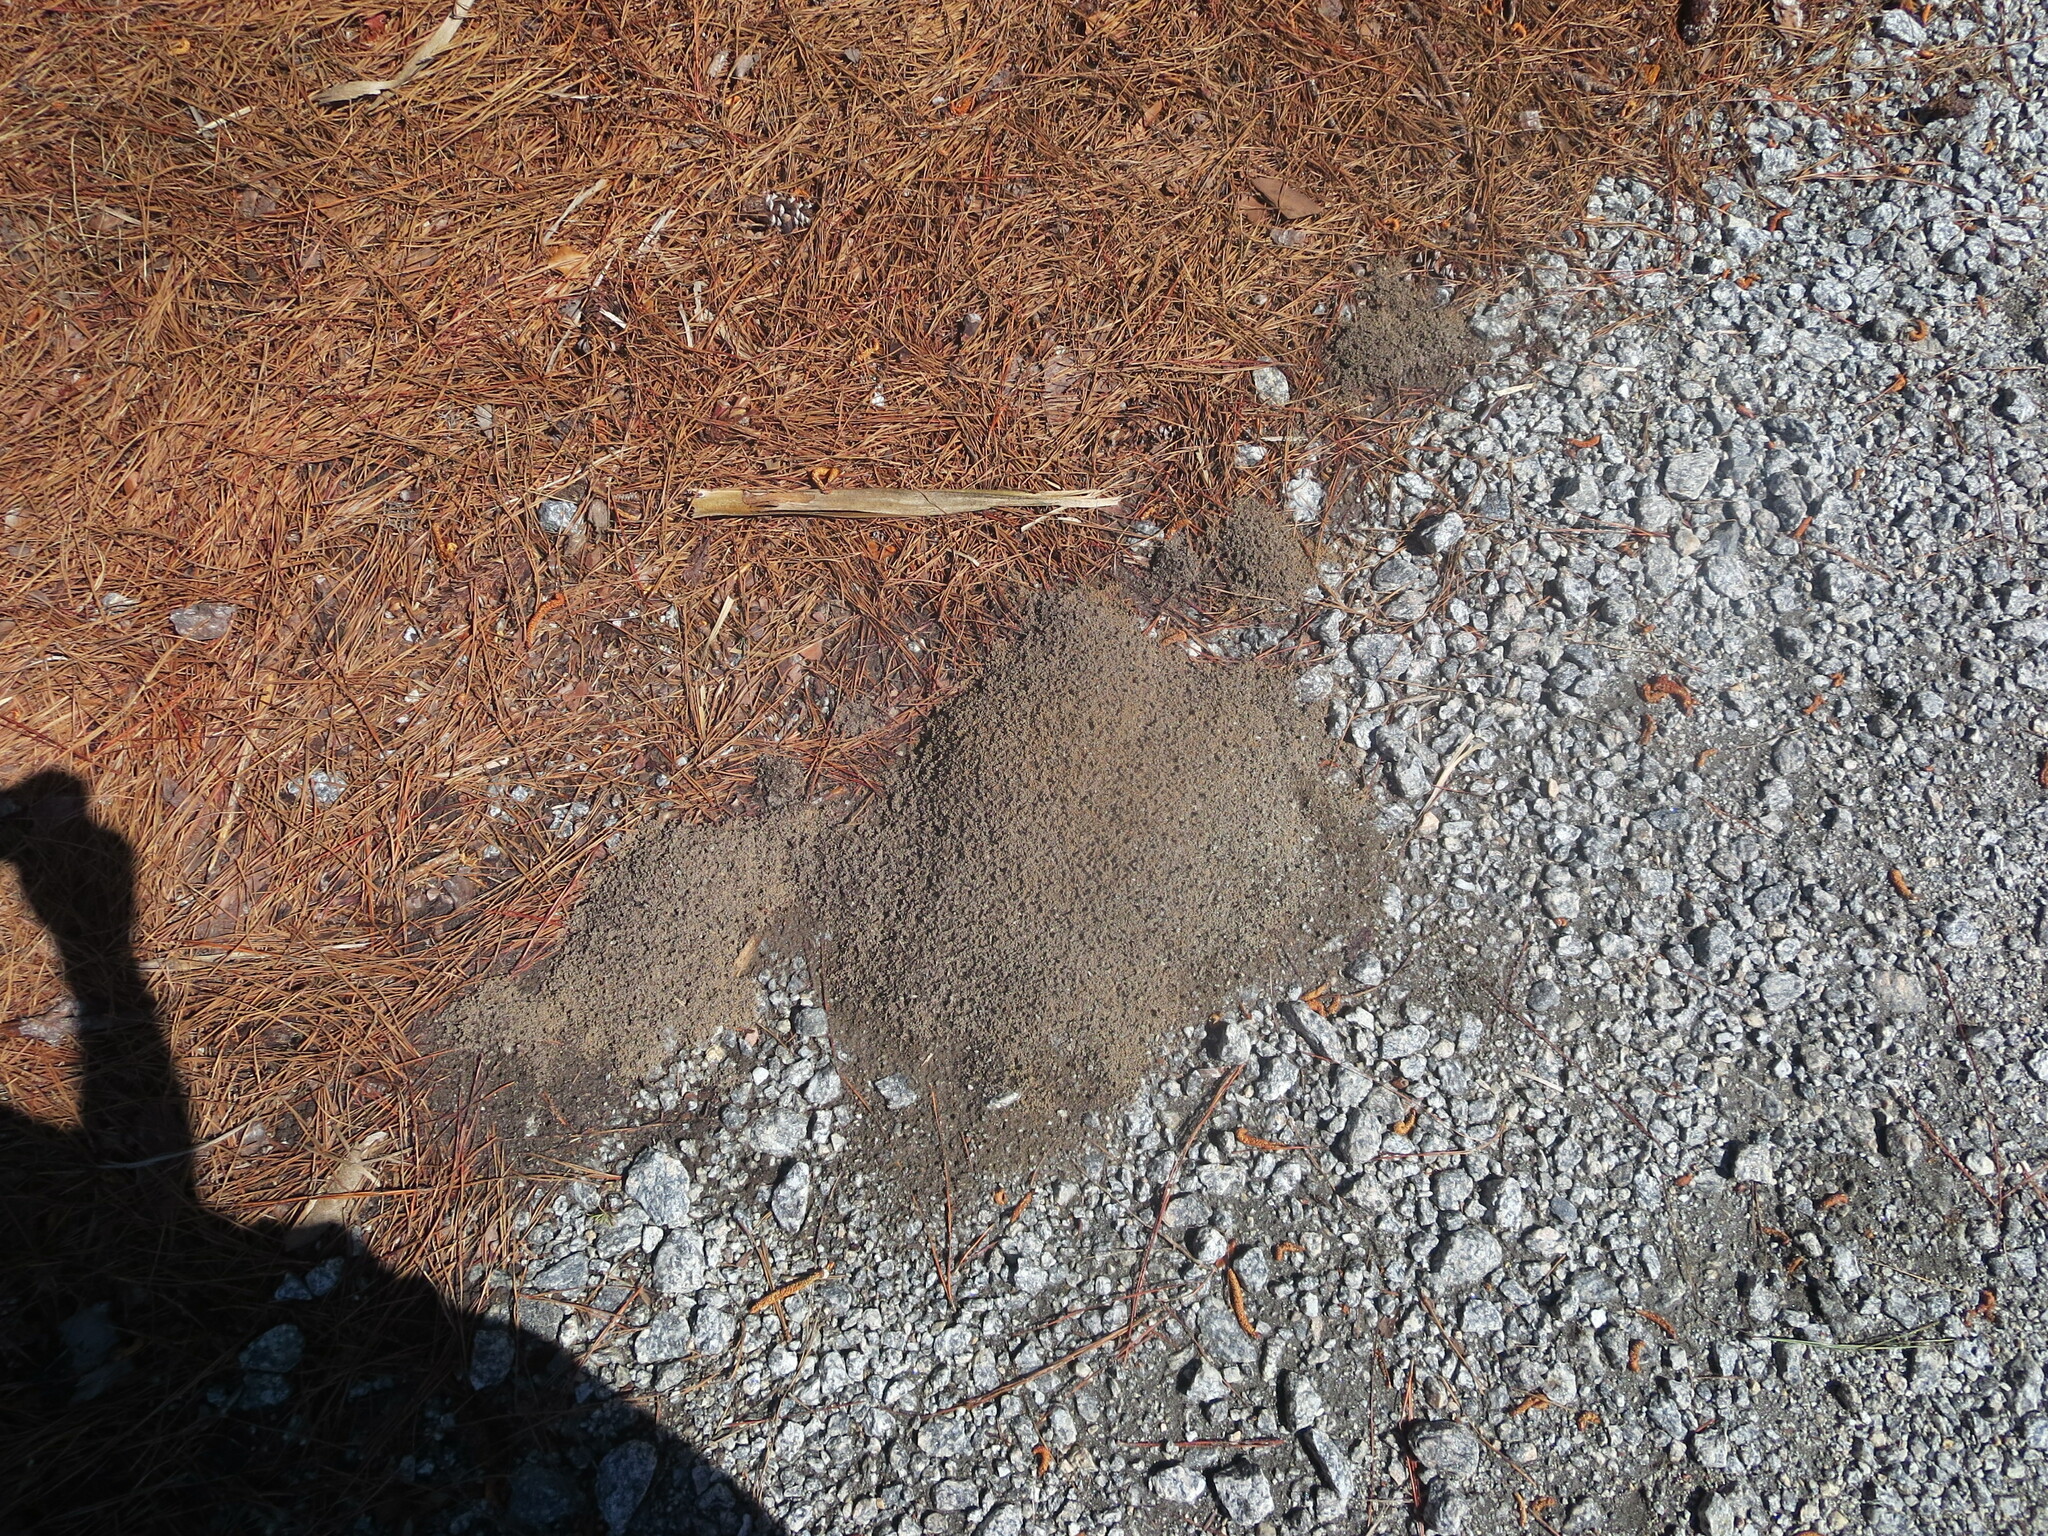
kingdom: Animalia
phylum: Arthropoda
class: Insecta
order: Hymenoptera
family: Formicidae
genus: Solenopsis
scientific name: Solenopsis invicta
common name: Red imported fire ant
